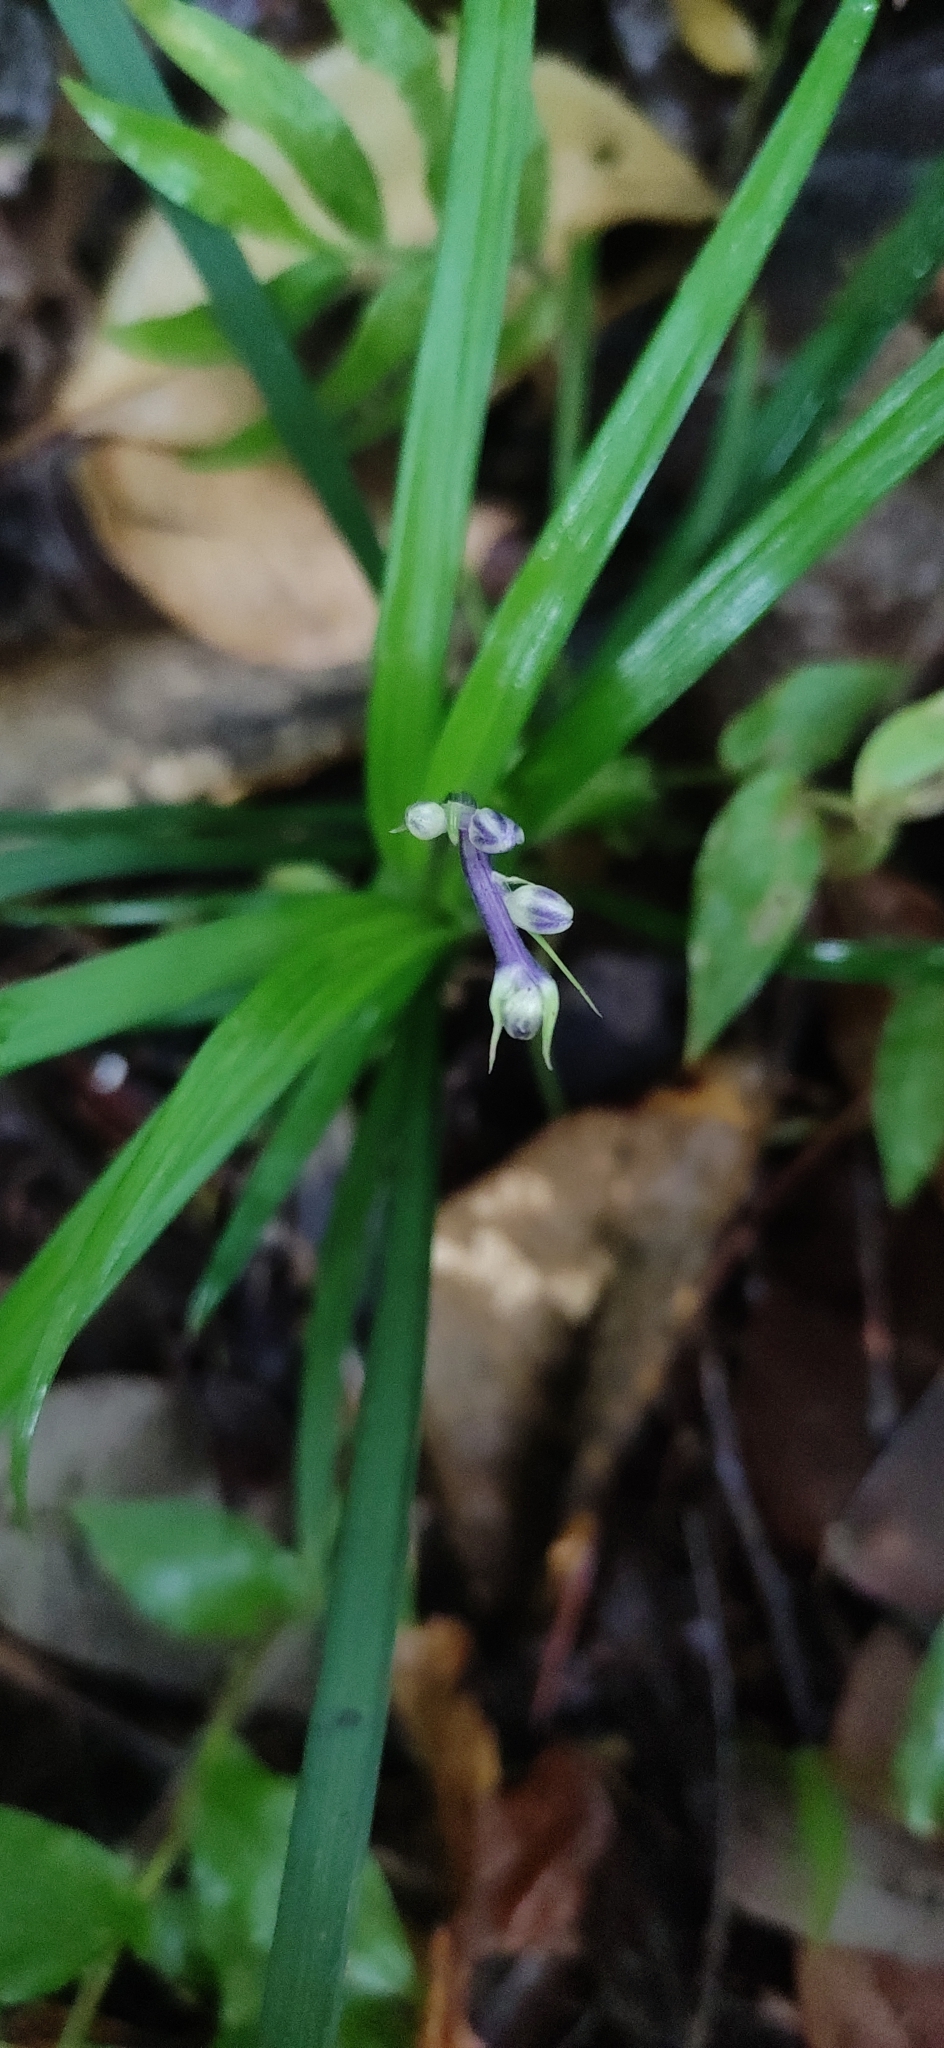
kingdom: Plantae
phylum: Tracheophyta
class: Liliopsida
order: Asparagales
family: Asparagaceae
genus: Ophiopogon
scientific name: Ophiopogon intermedius
